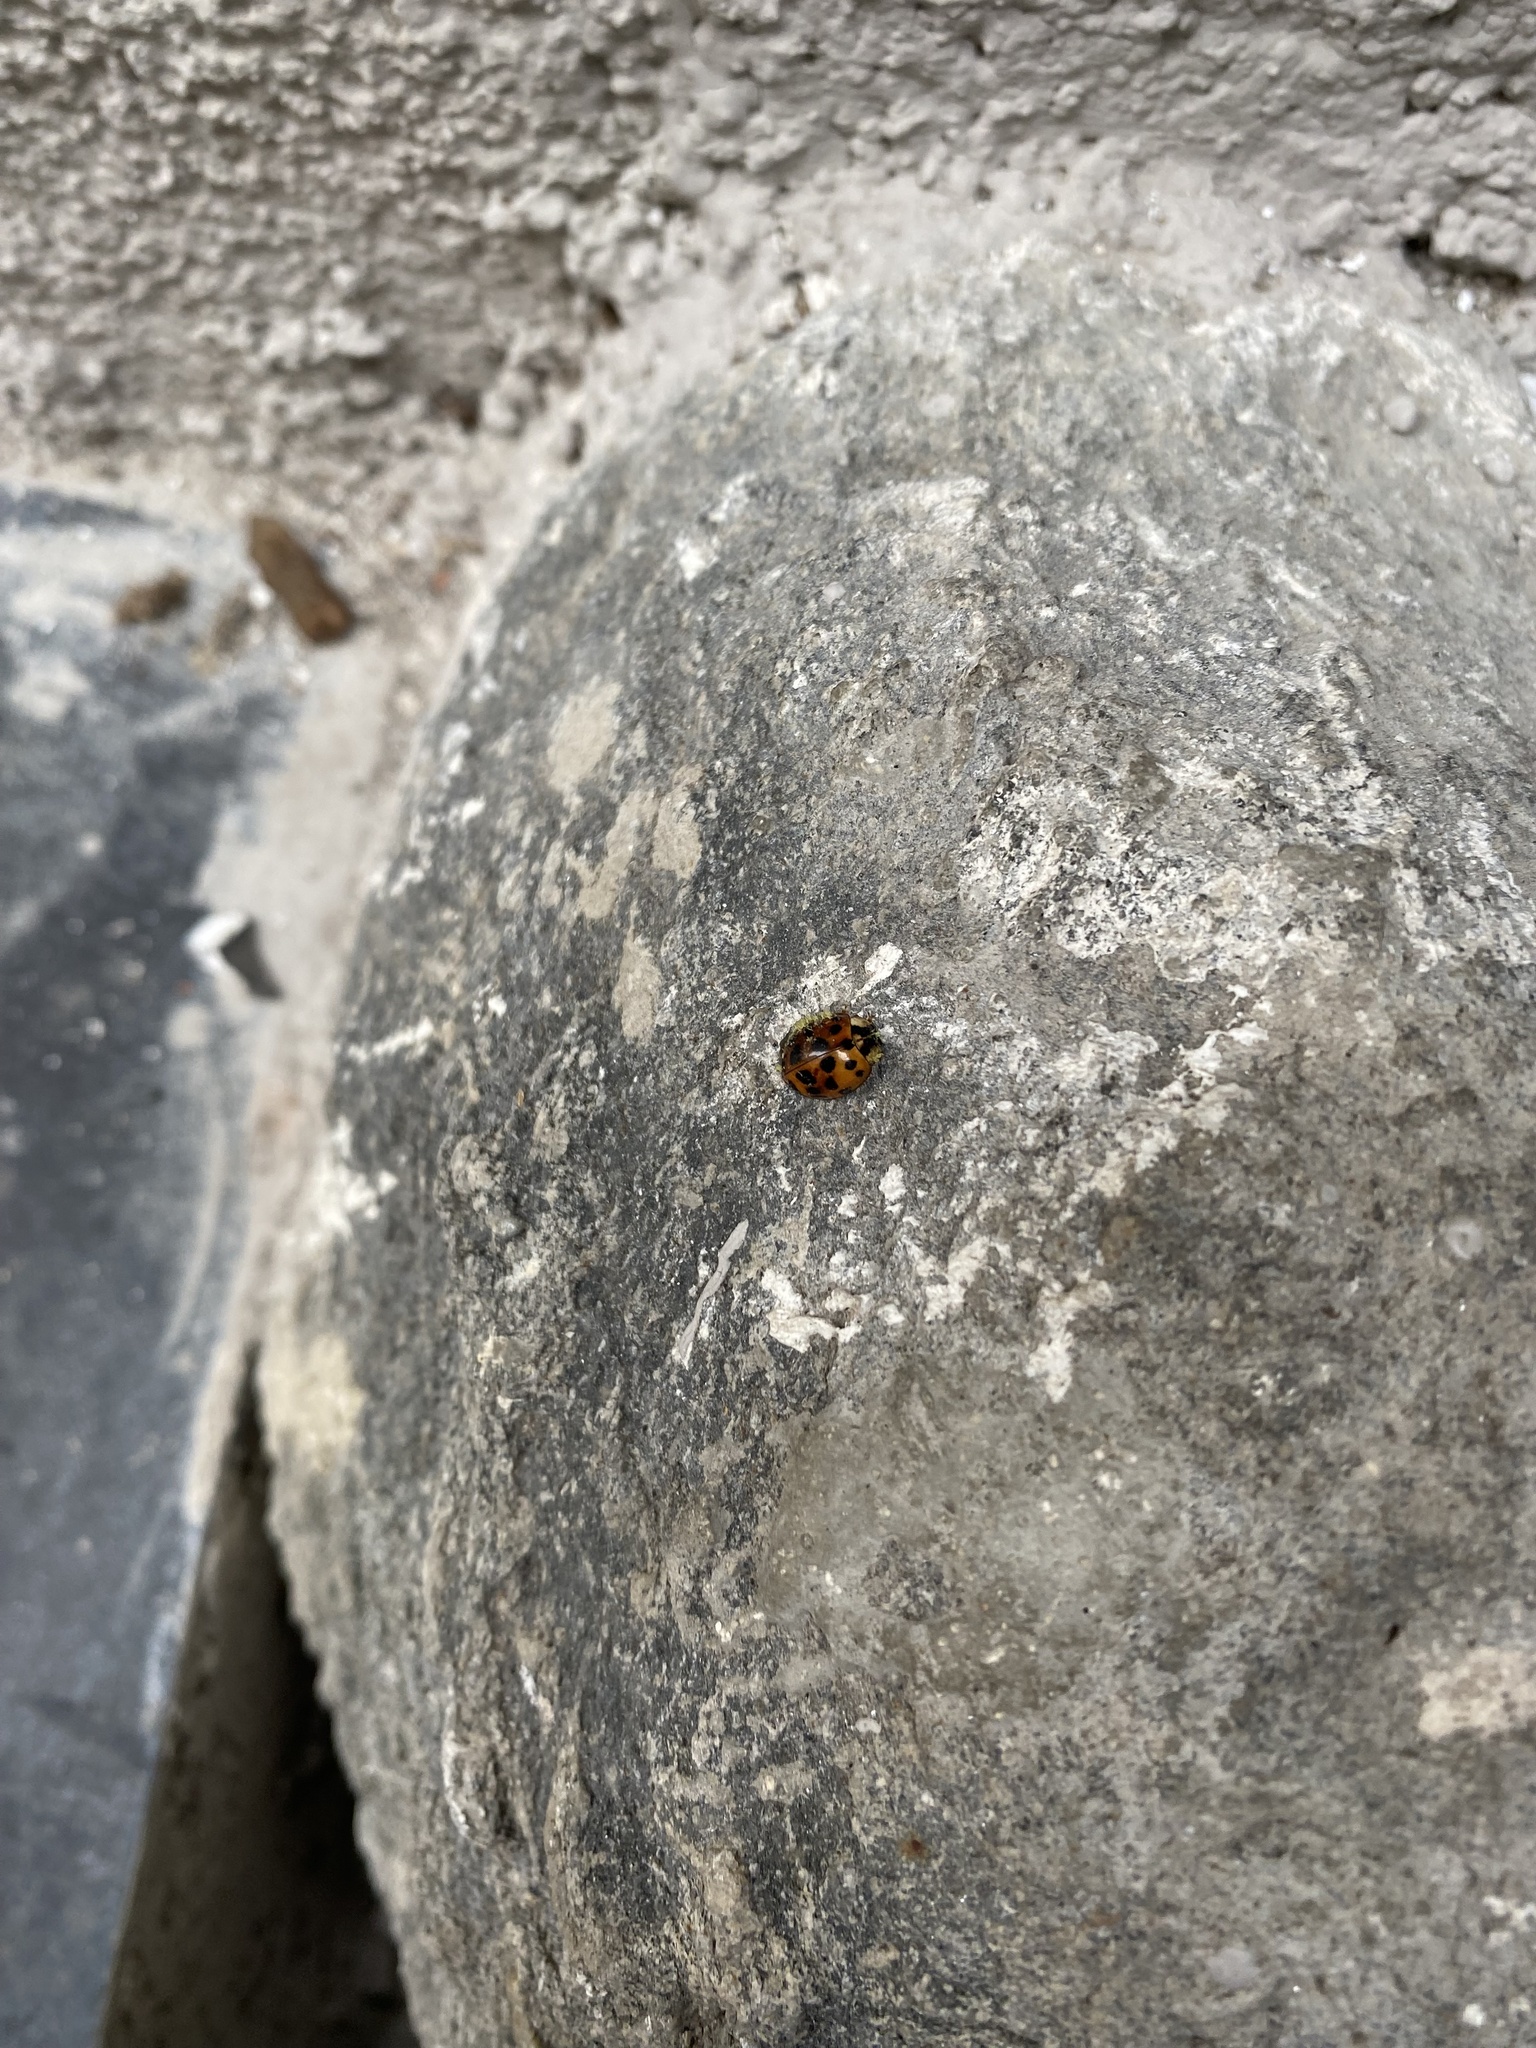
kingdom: Fungi
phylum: Ascomycota
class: Laboulbeniomycetes
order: Laboulbeniales
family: Laboulbeniaceae
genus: Hesperomyces
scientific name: Hesperomyces harmoniae
